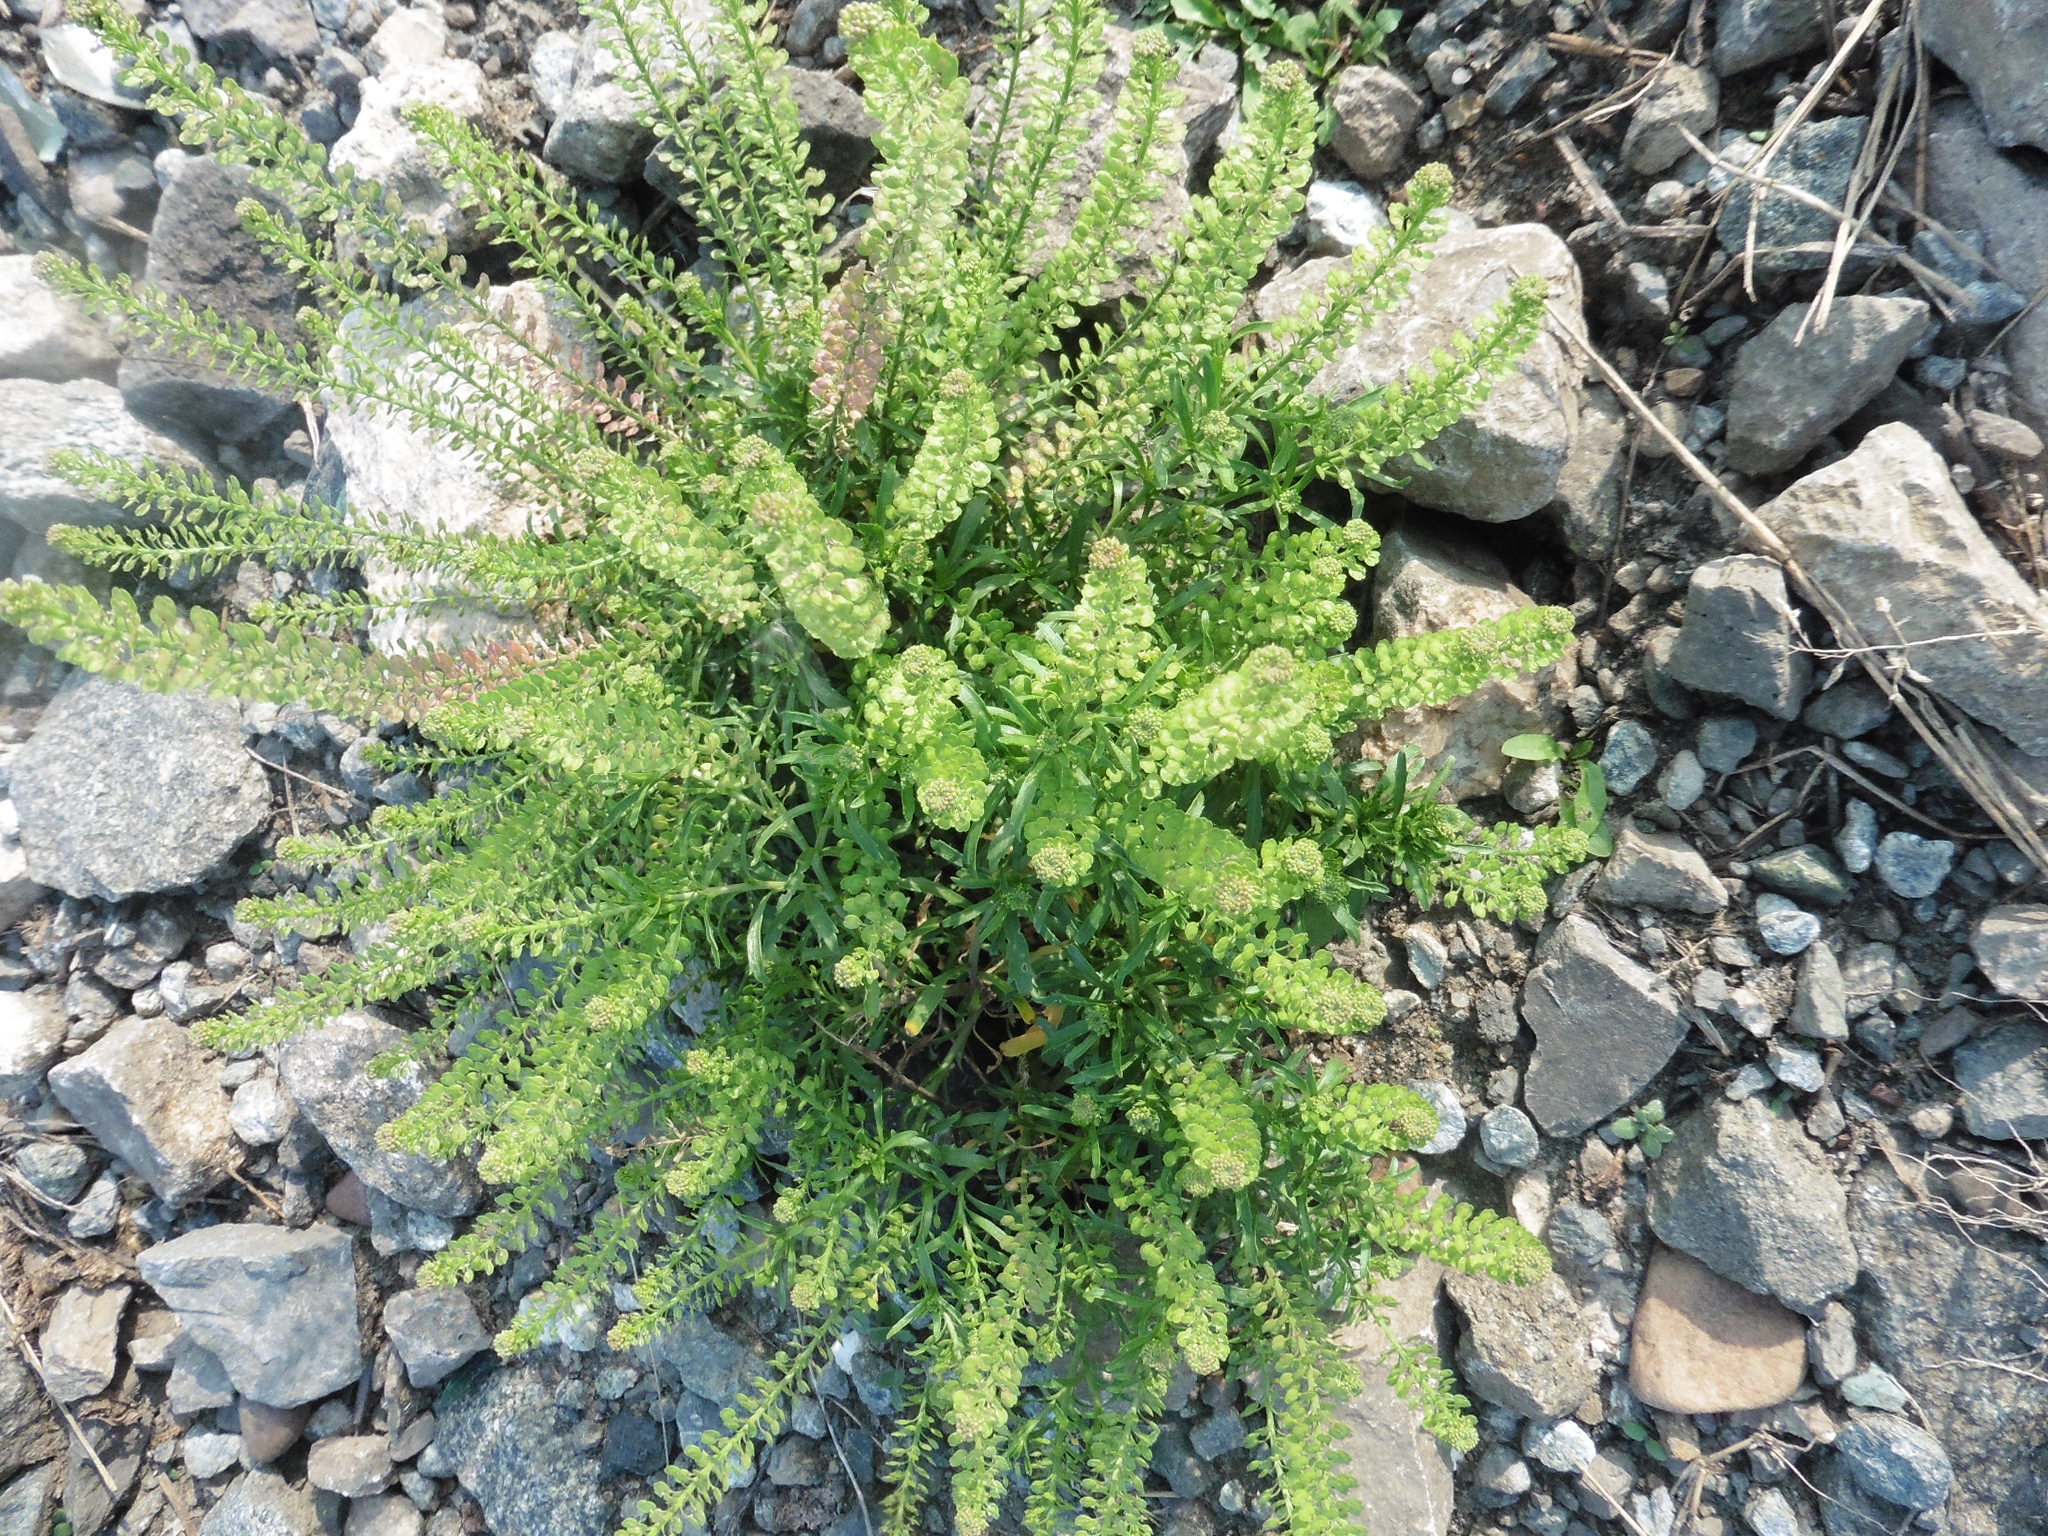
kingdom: Plantae
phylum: Tracheophyta
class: Magnoliopsida
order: Brassicales
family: Brassicaceae
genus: Lepidium
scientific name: Lepidium densiflorum
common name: Miner's pepperwort
